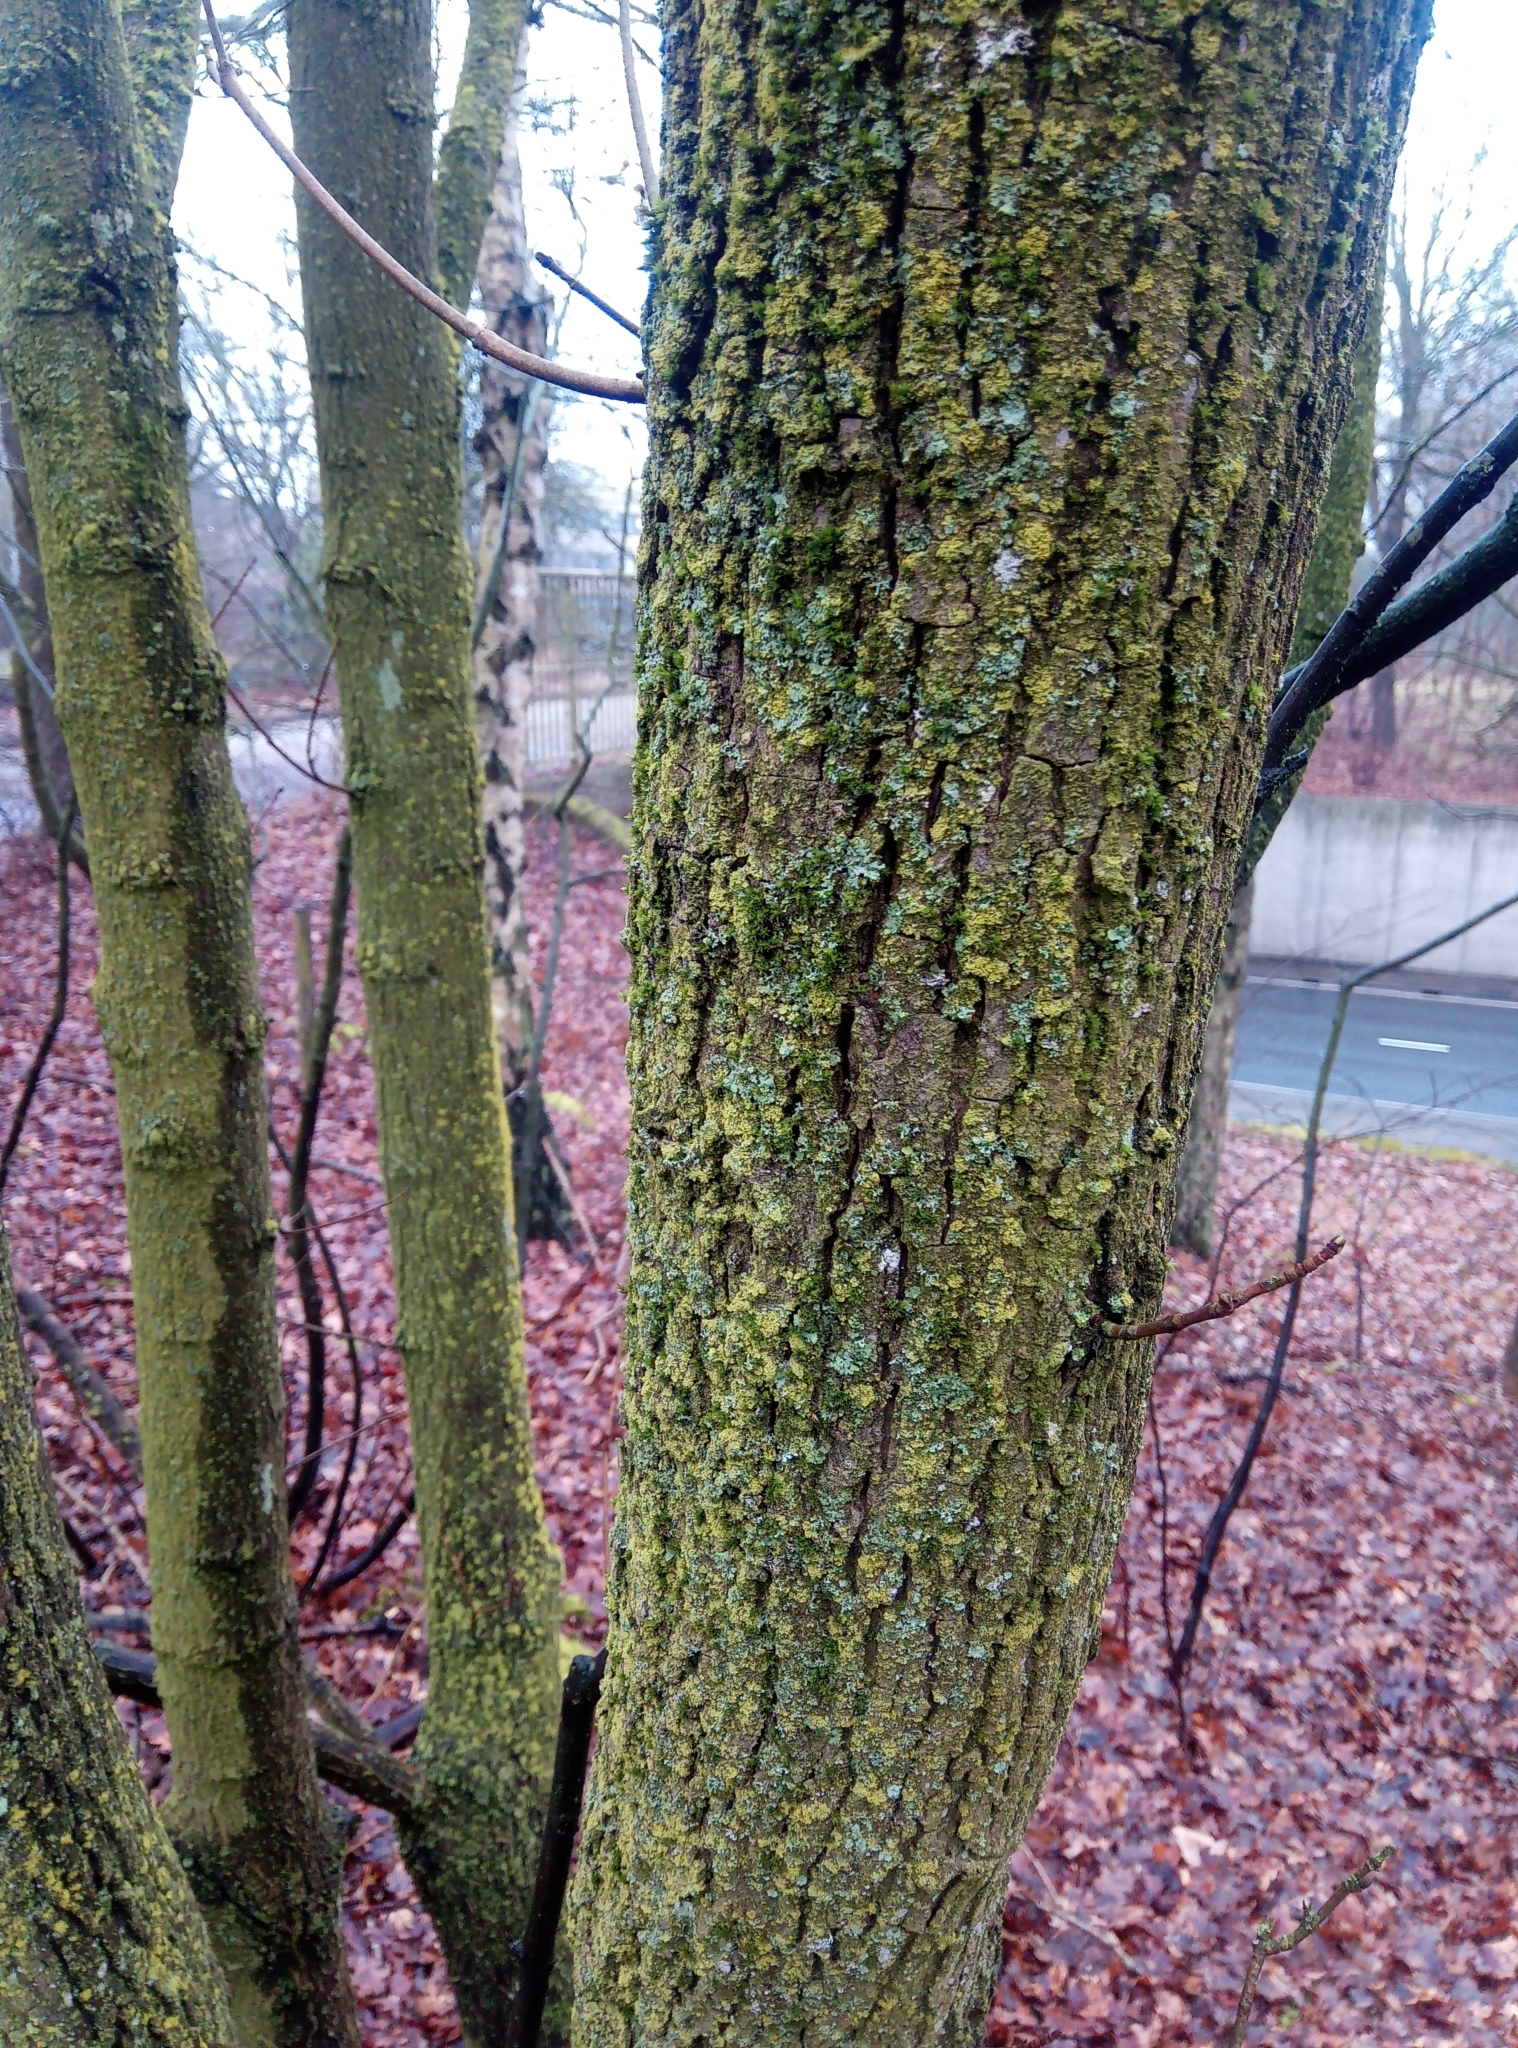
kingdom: Plantae
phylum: Bryophyta
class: Bryopsida
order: Orthotrichales
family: Orthotrichaceae
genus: Orthotrichum
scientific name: Orthotrichum diaphanum
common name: White-tipped bristle-moss
